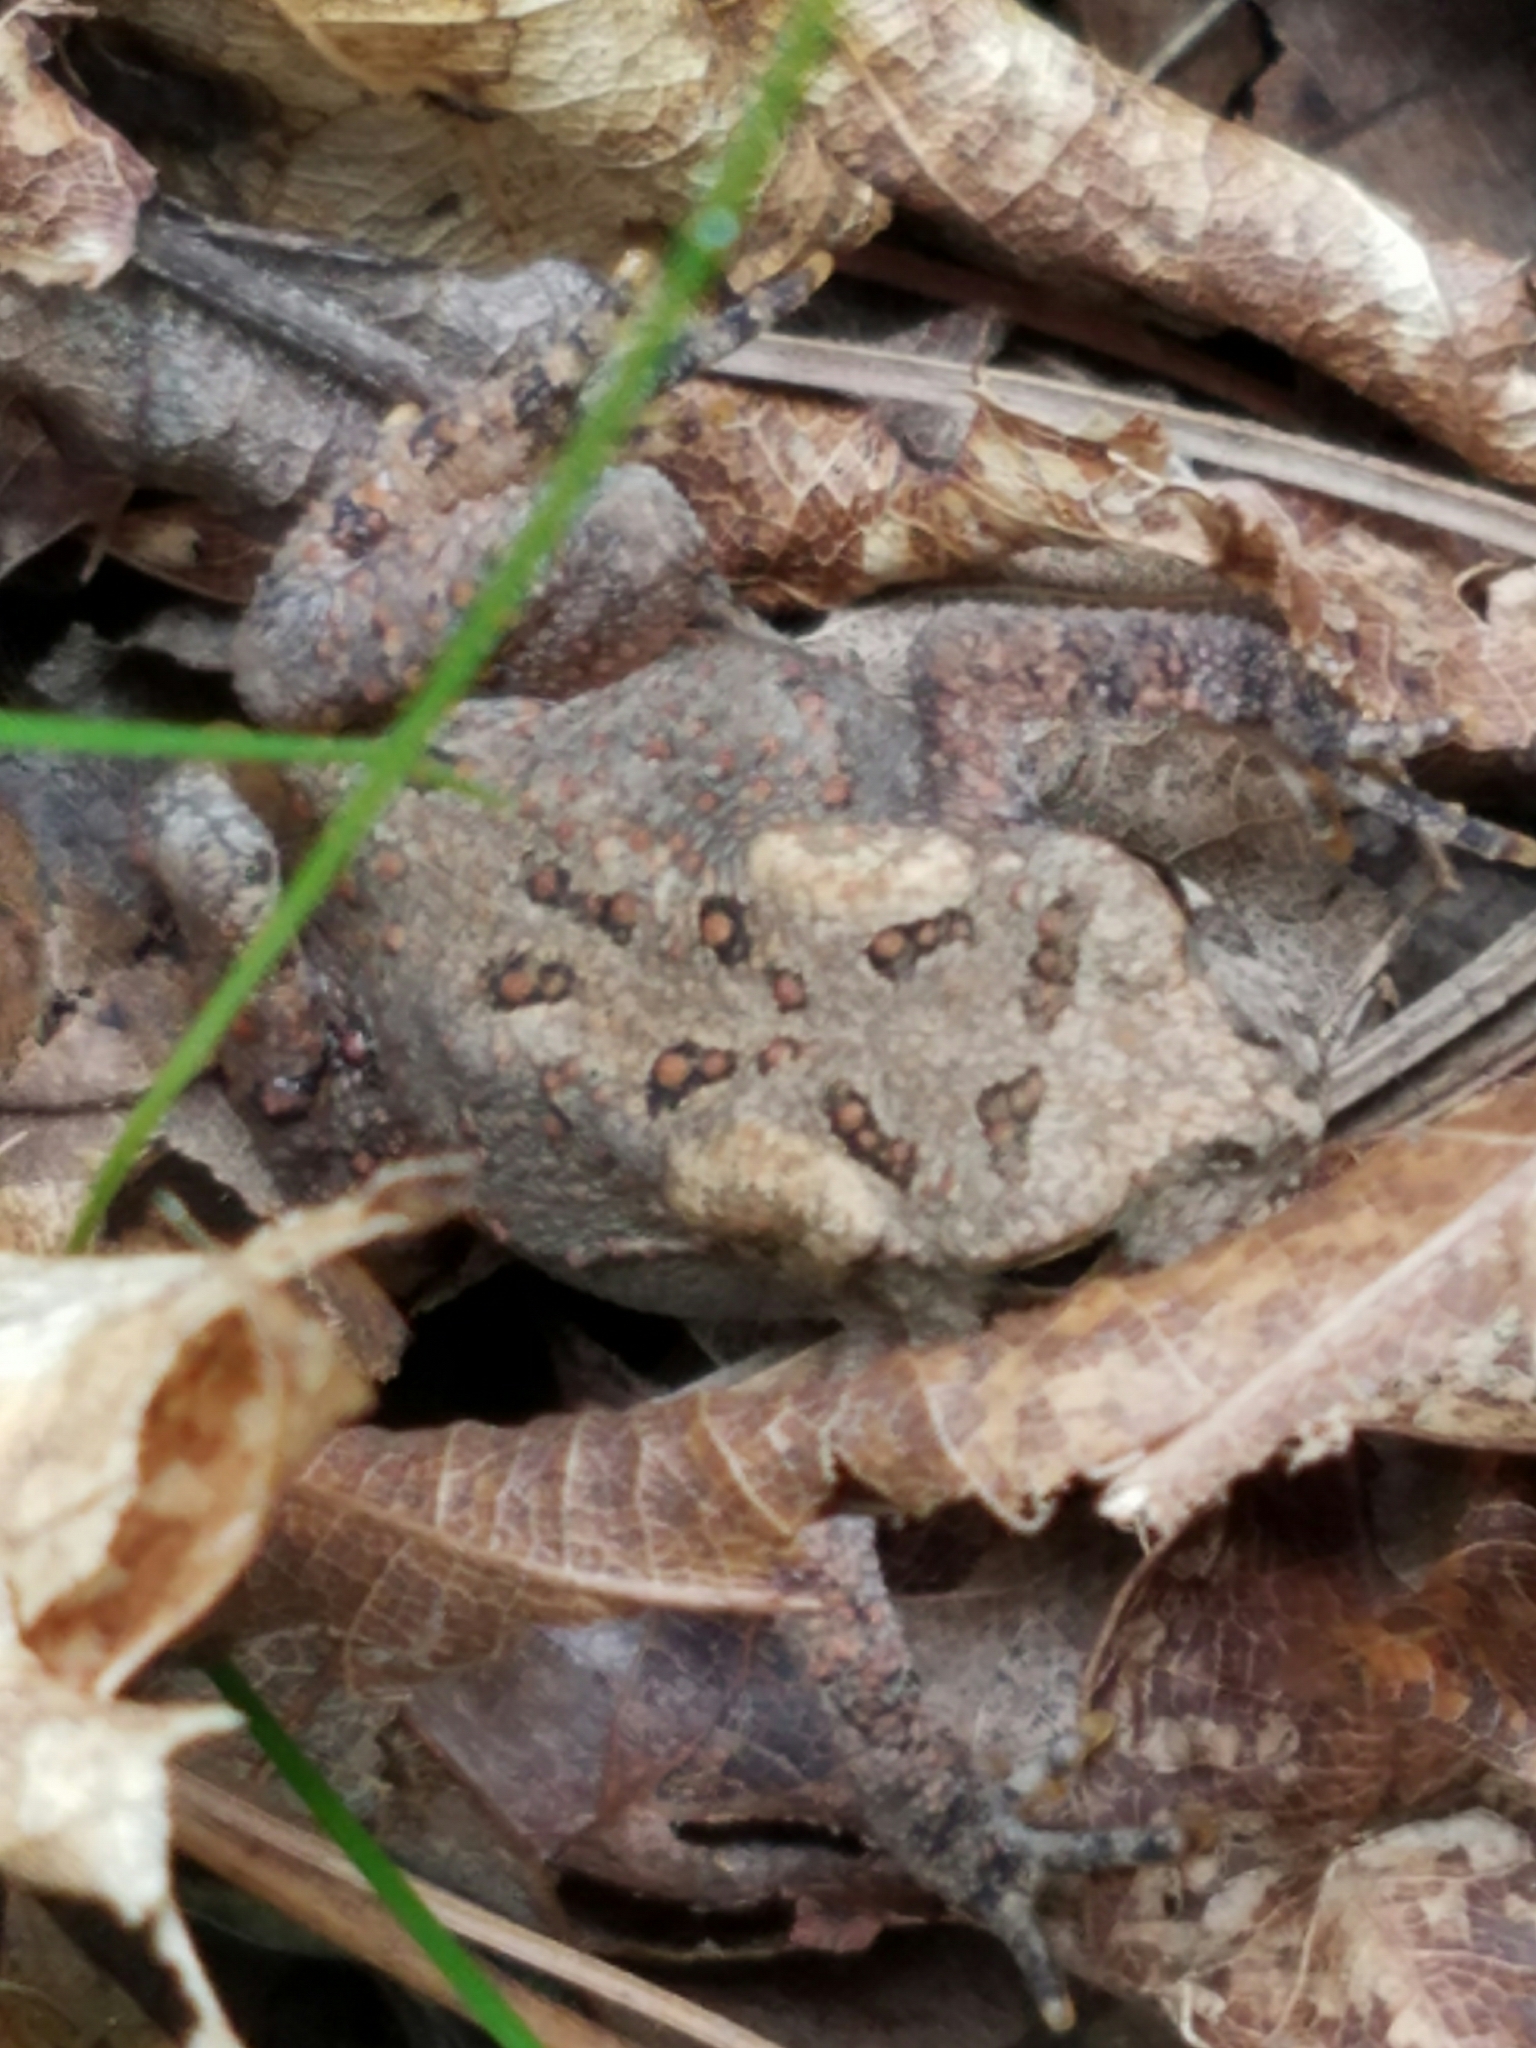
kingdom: Animalia
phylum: Chordata
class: Amphibia
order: Anura
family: Bufonidae
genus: Anaxyrus
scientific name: Anaxyrus americanus
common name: American toad
